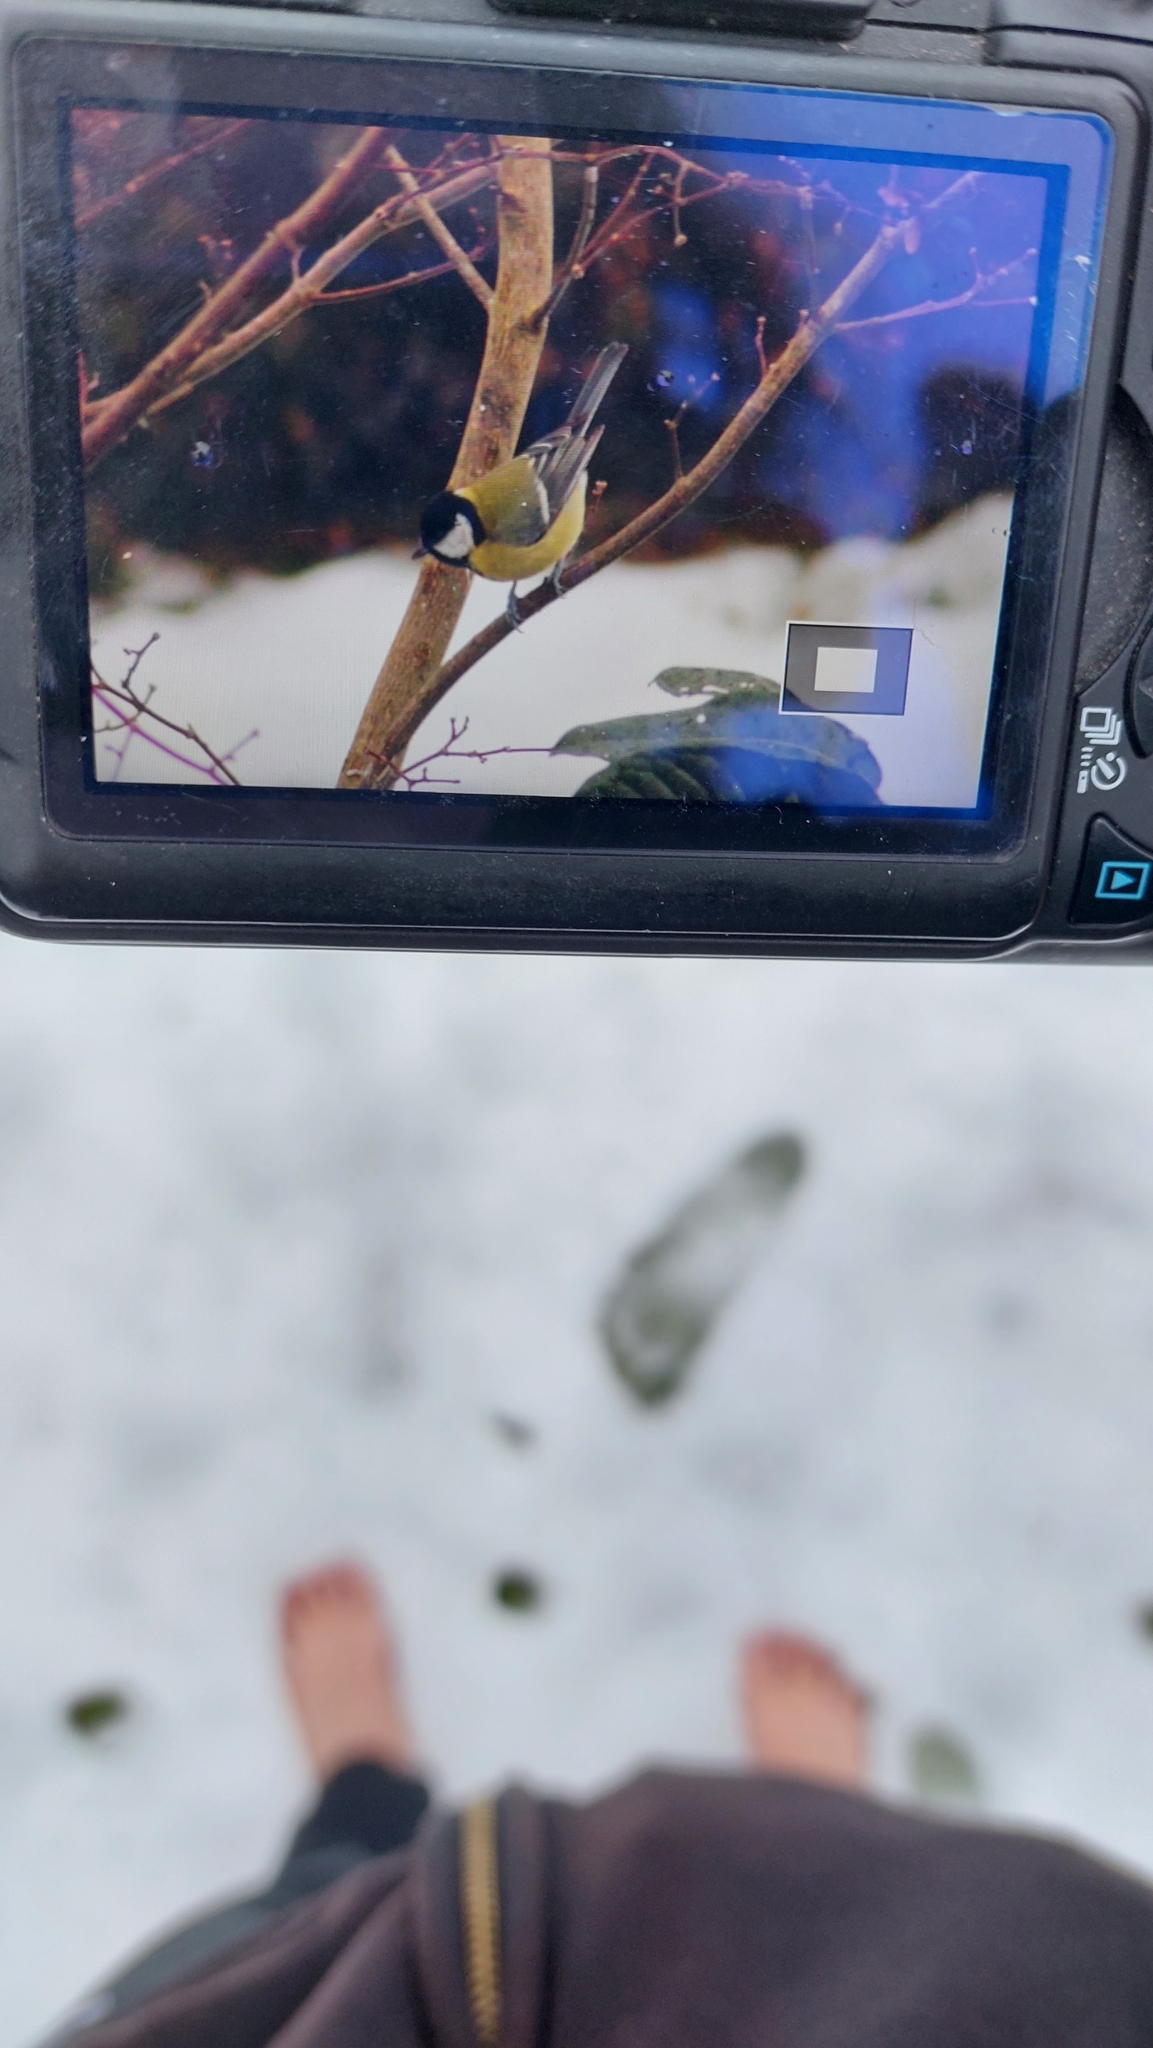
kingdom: Animalia
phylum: Chordata
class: Aves
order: Passeriformes
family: Paridae
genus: Parus
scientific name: Parus major
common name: Great tit
